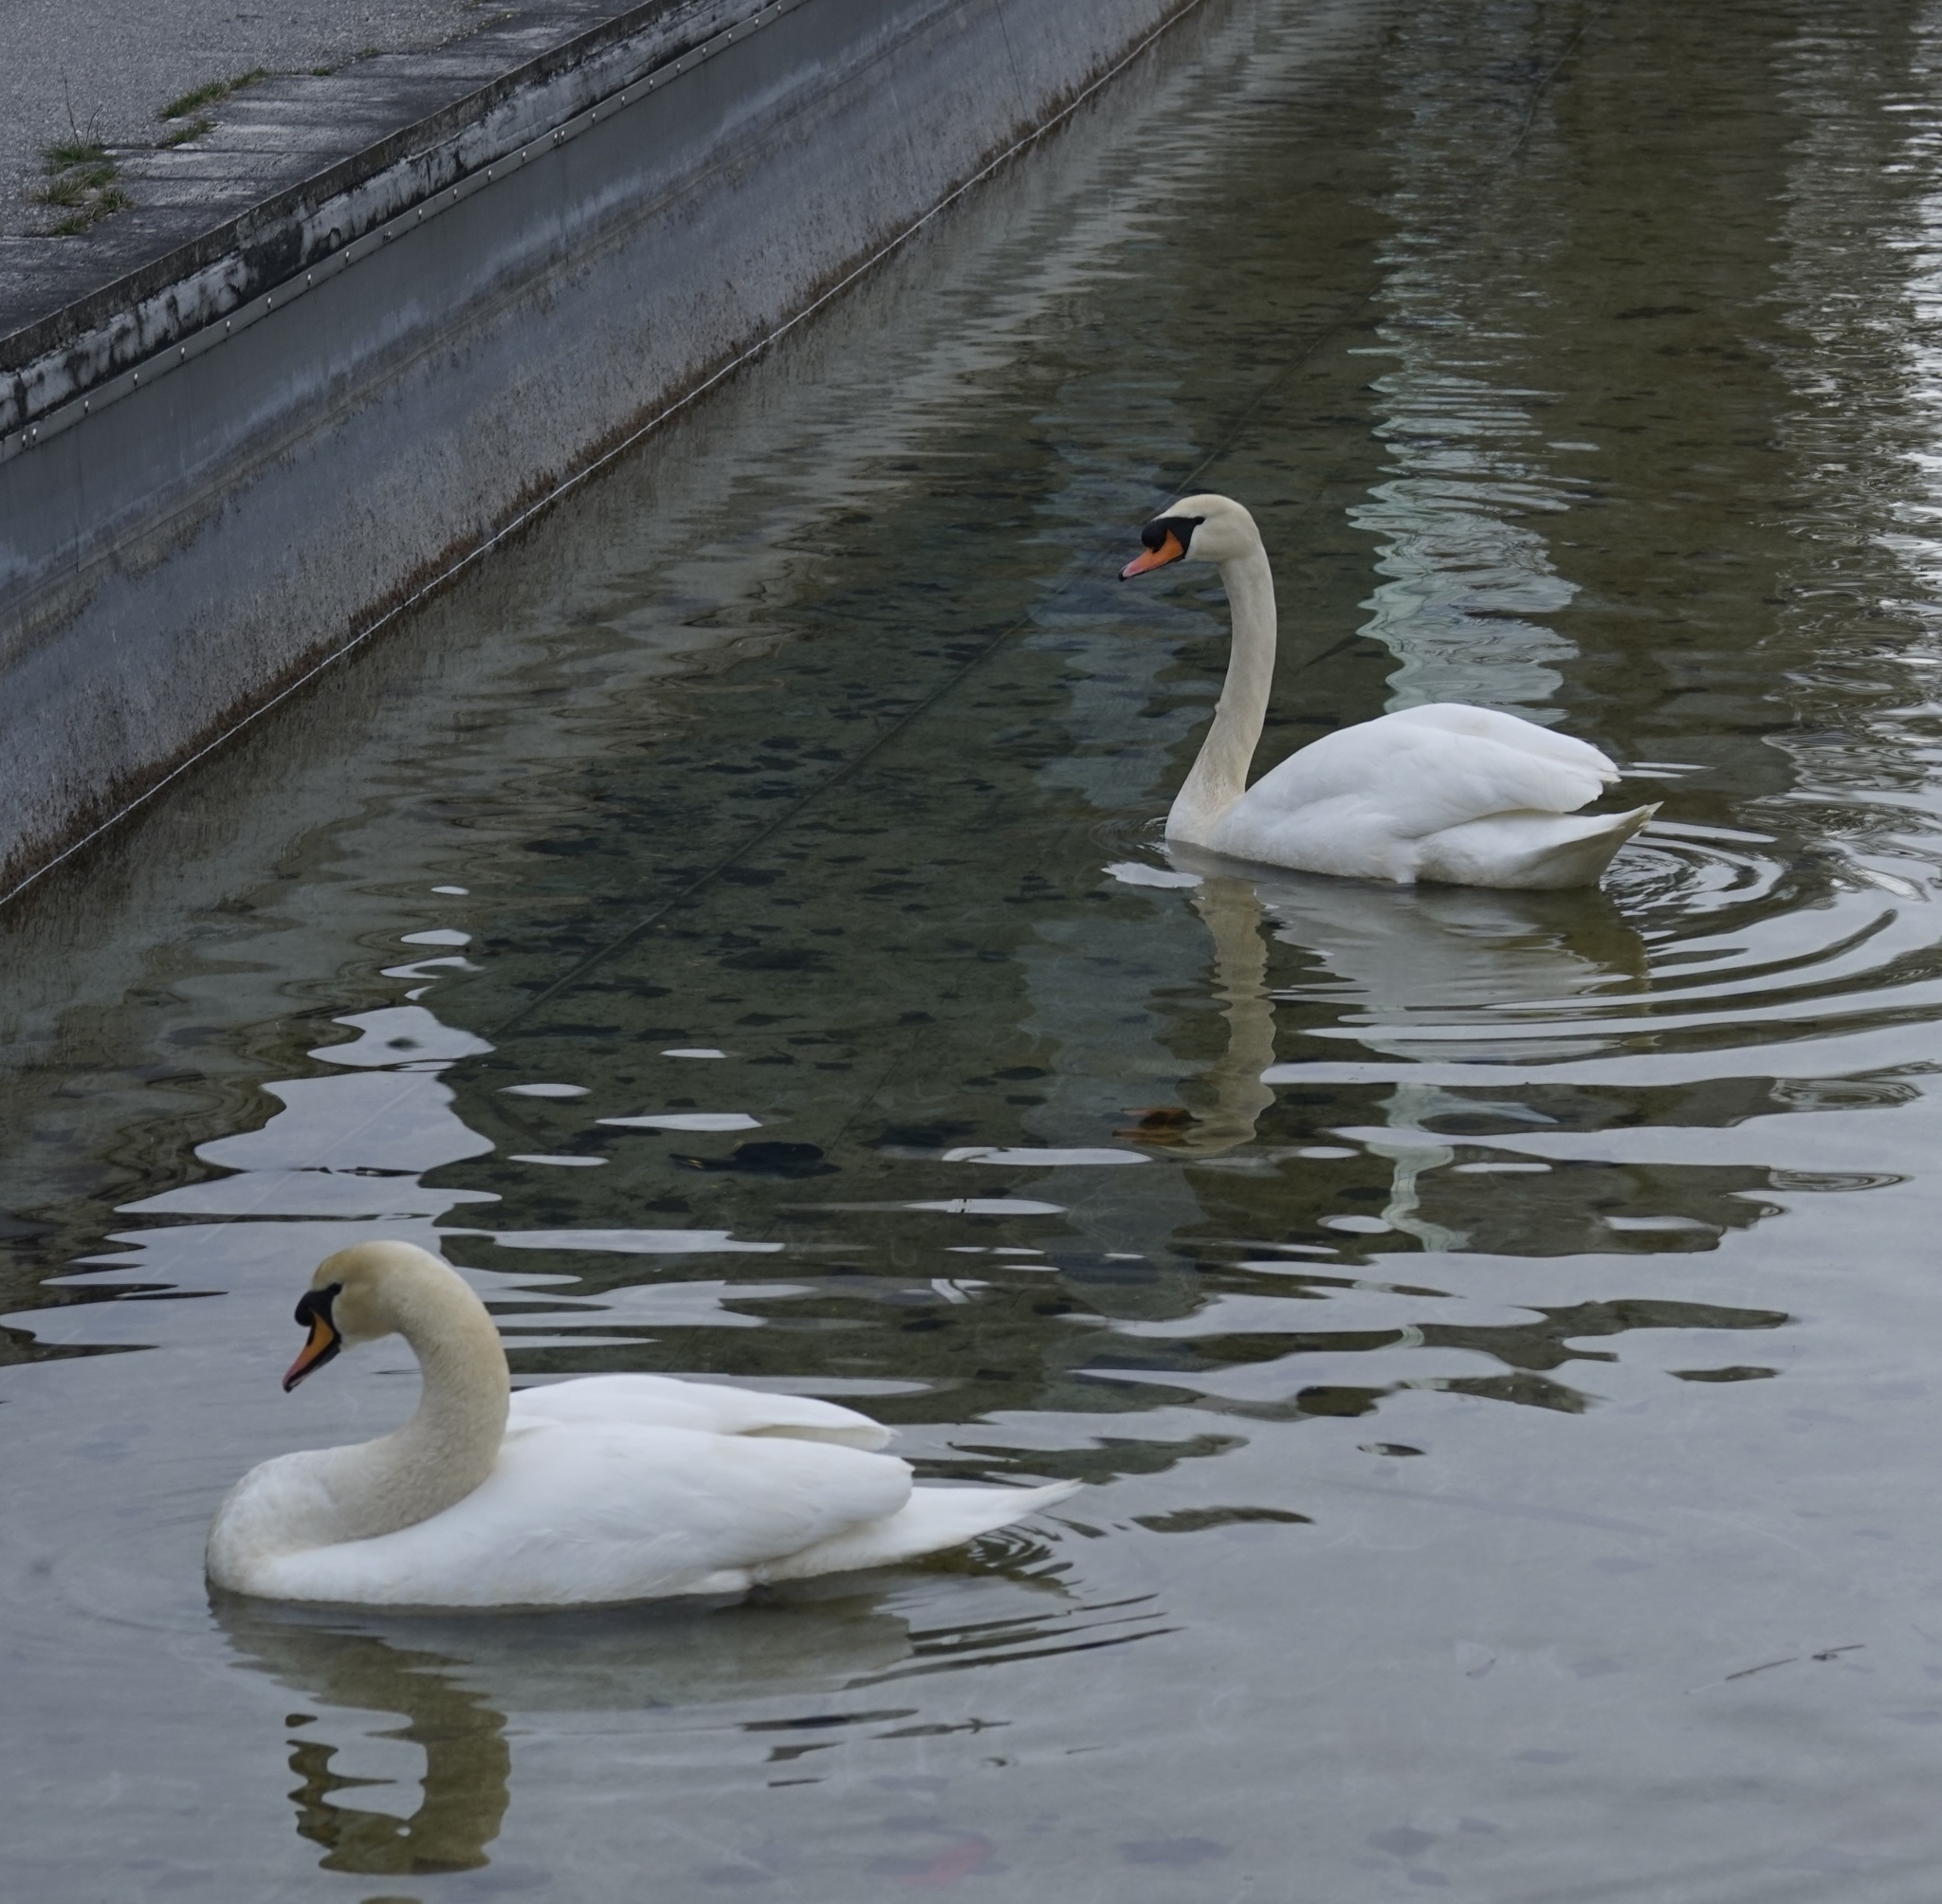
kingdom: Animalia
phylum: Chordata
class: Aves
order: Anseriformes
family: Anatidae
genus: Cygnus
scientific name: Cygnus olor
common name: Mute swan
